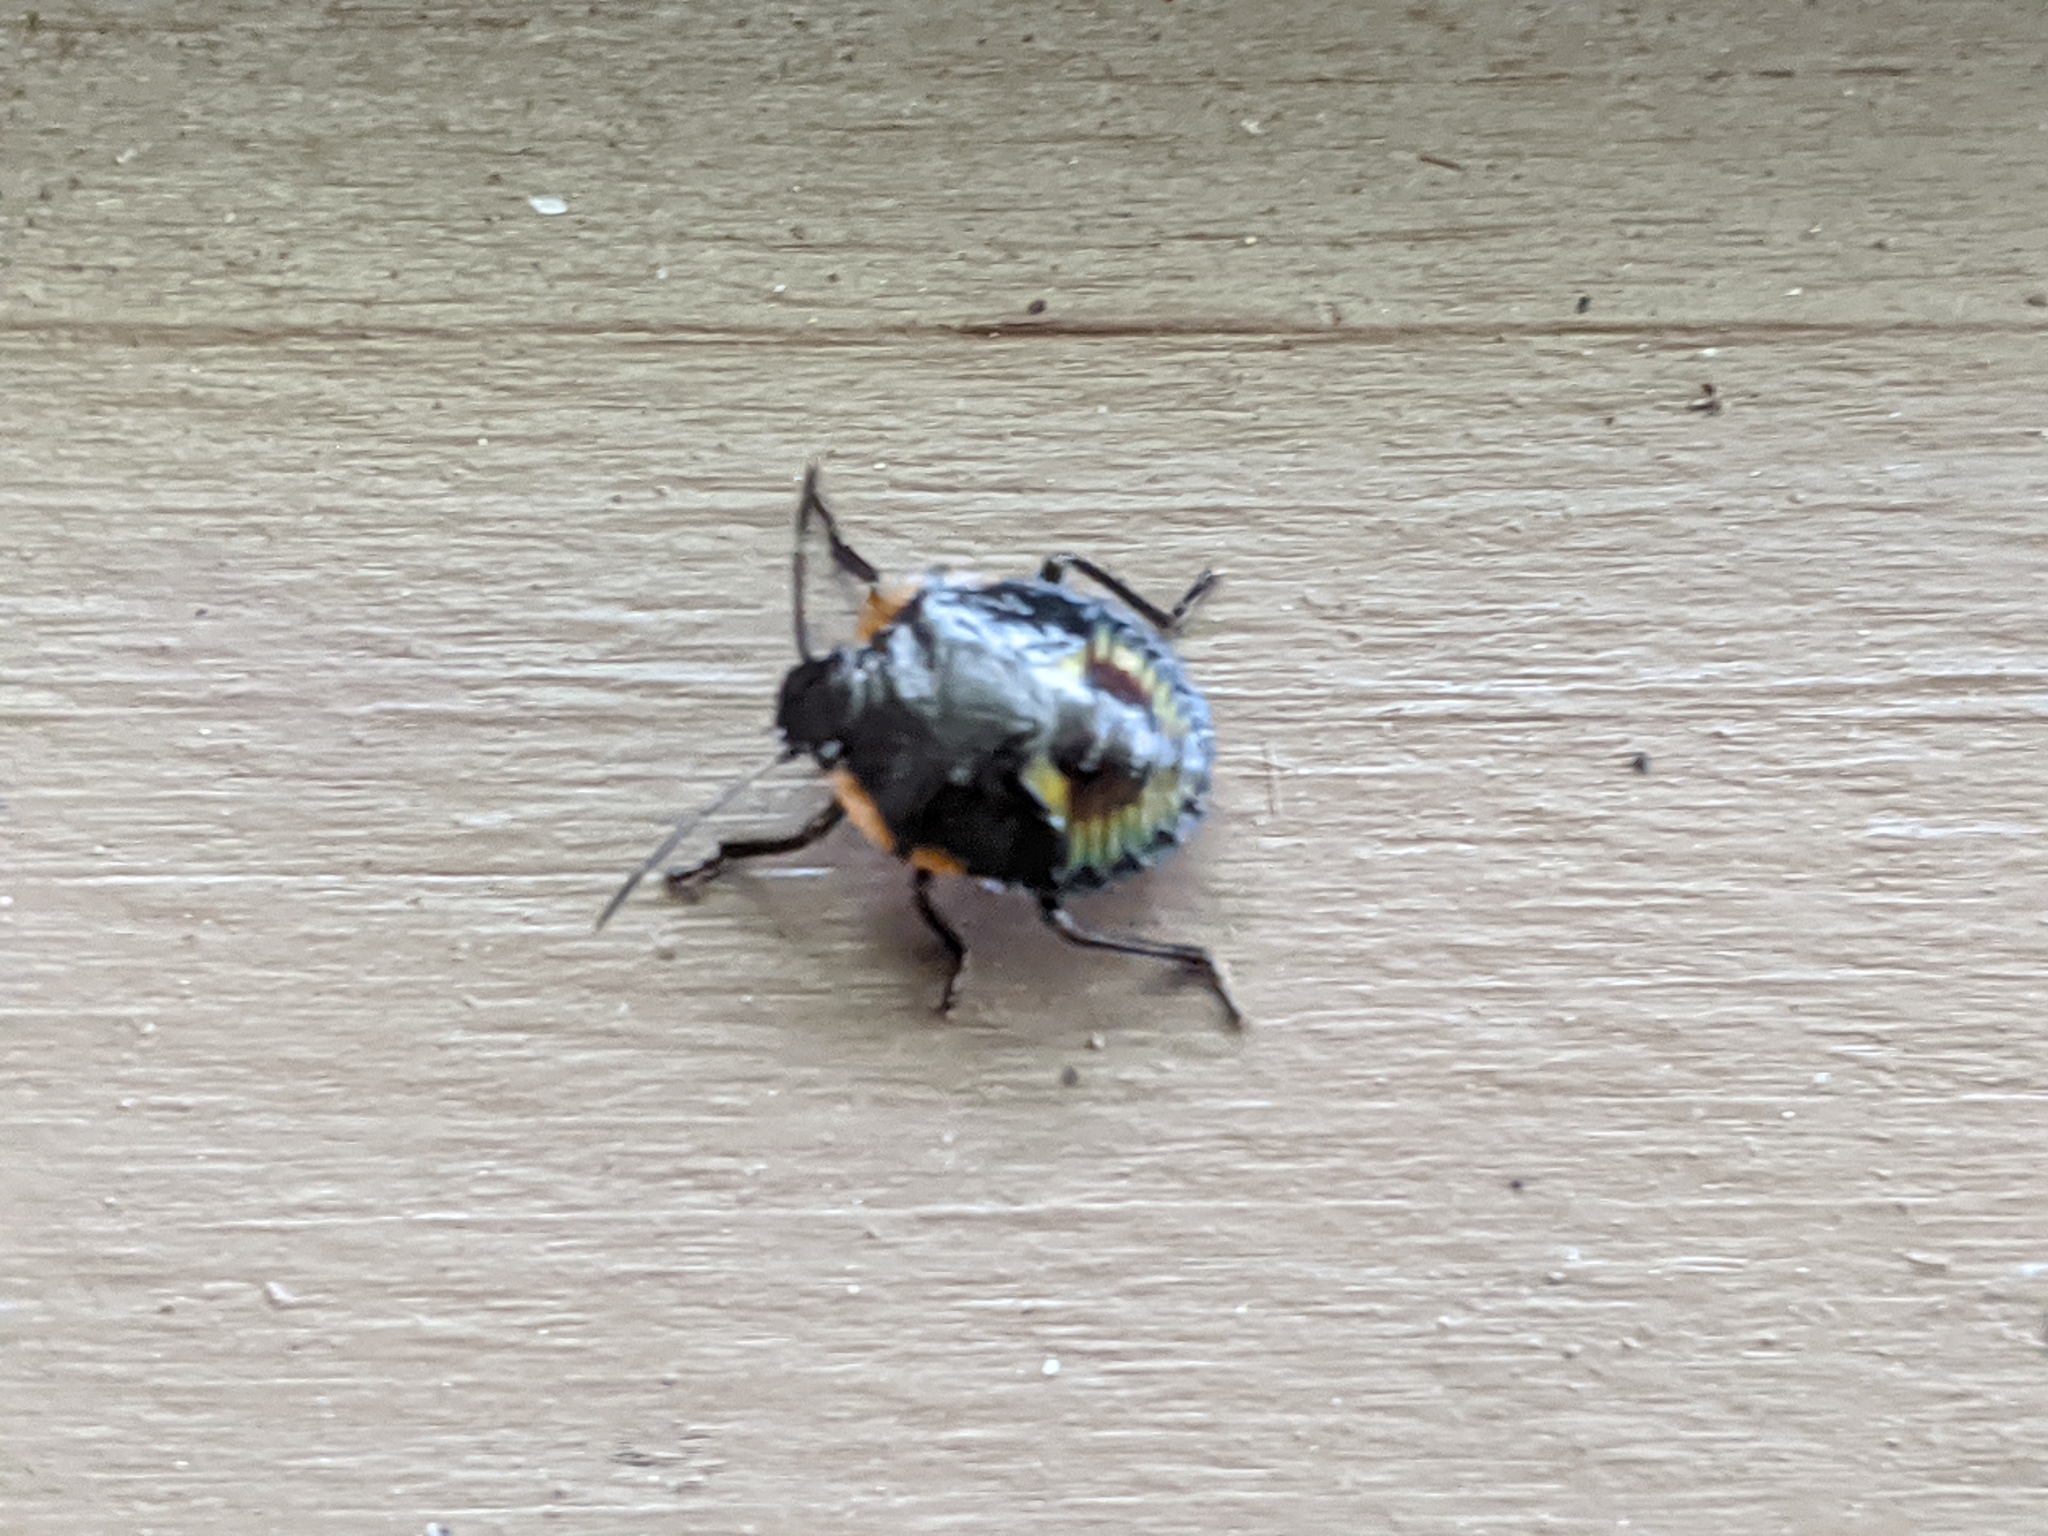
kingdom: Animalia
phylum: Arthropoda
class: Insecta
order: Hemiptera
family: Pentatomidae
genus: Chinavia
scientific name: Chinavia hilaris
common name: Green stink bug
